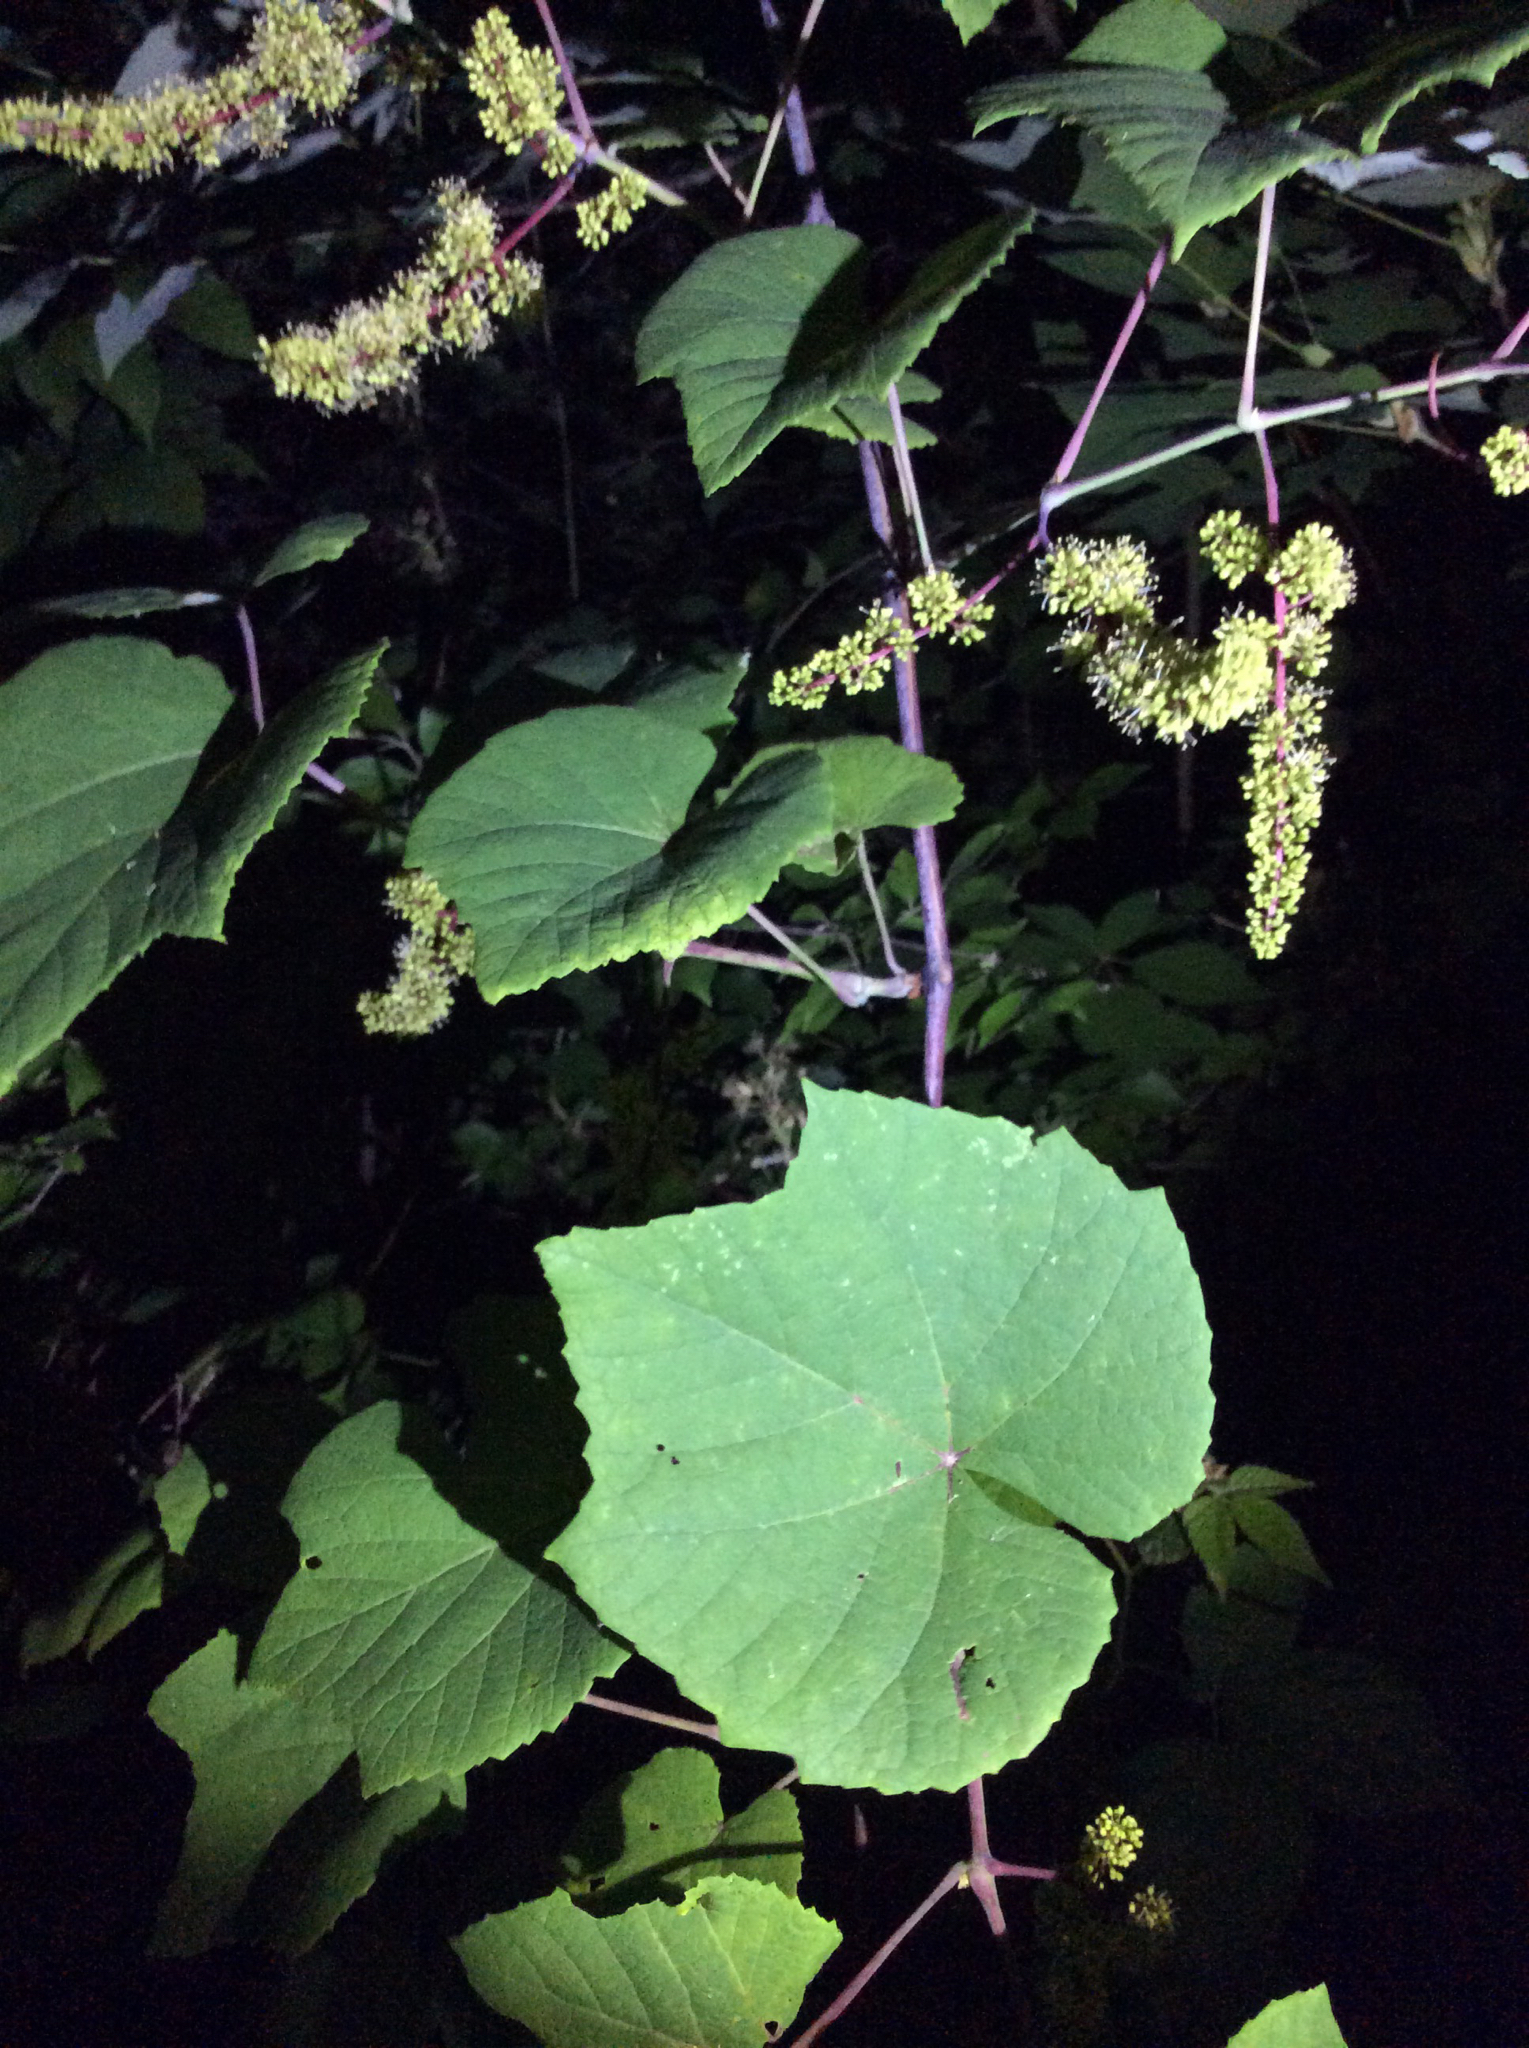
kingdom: Plantae
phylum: Tracheophyta
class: Magnoliopsida
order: Vitales
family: Vitaceae
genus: Vitis
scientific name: Vitis aestivalis
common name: Pigeon grape
